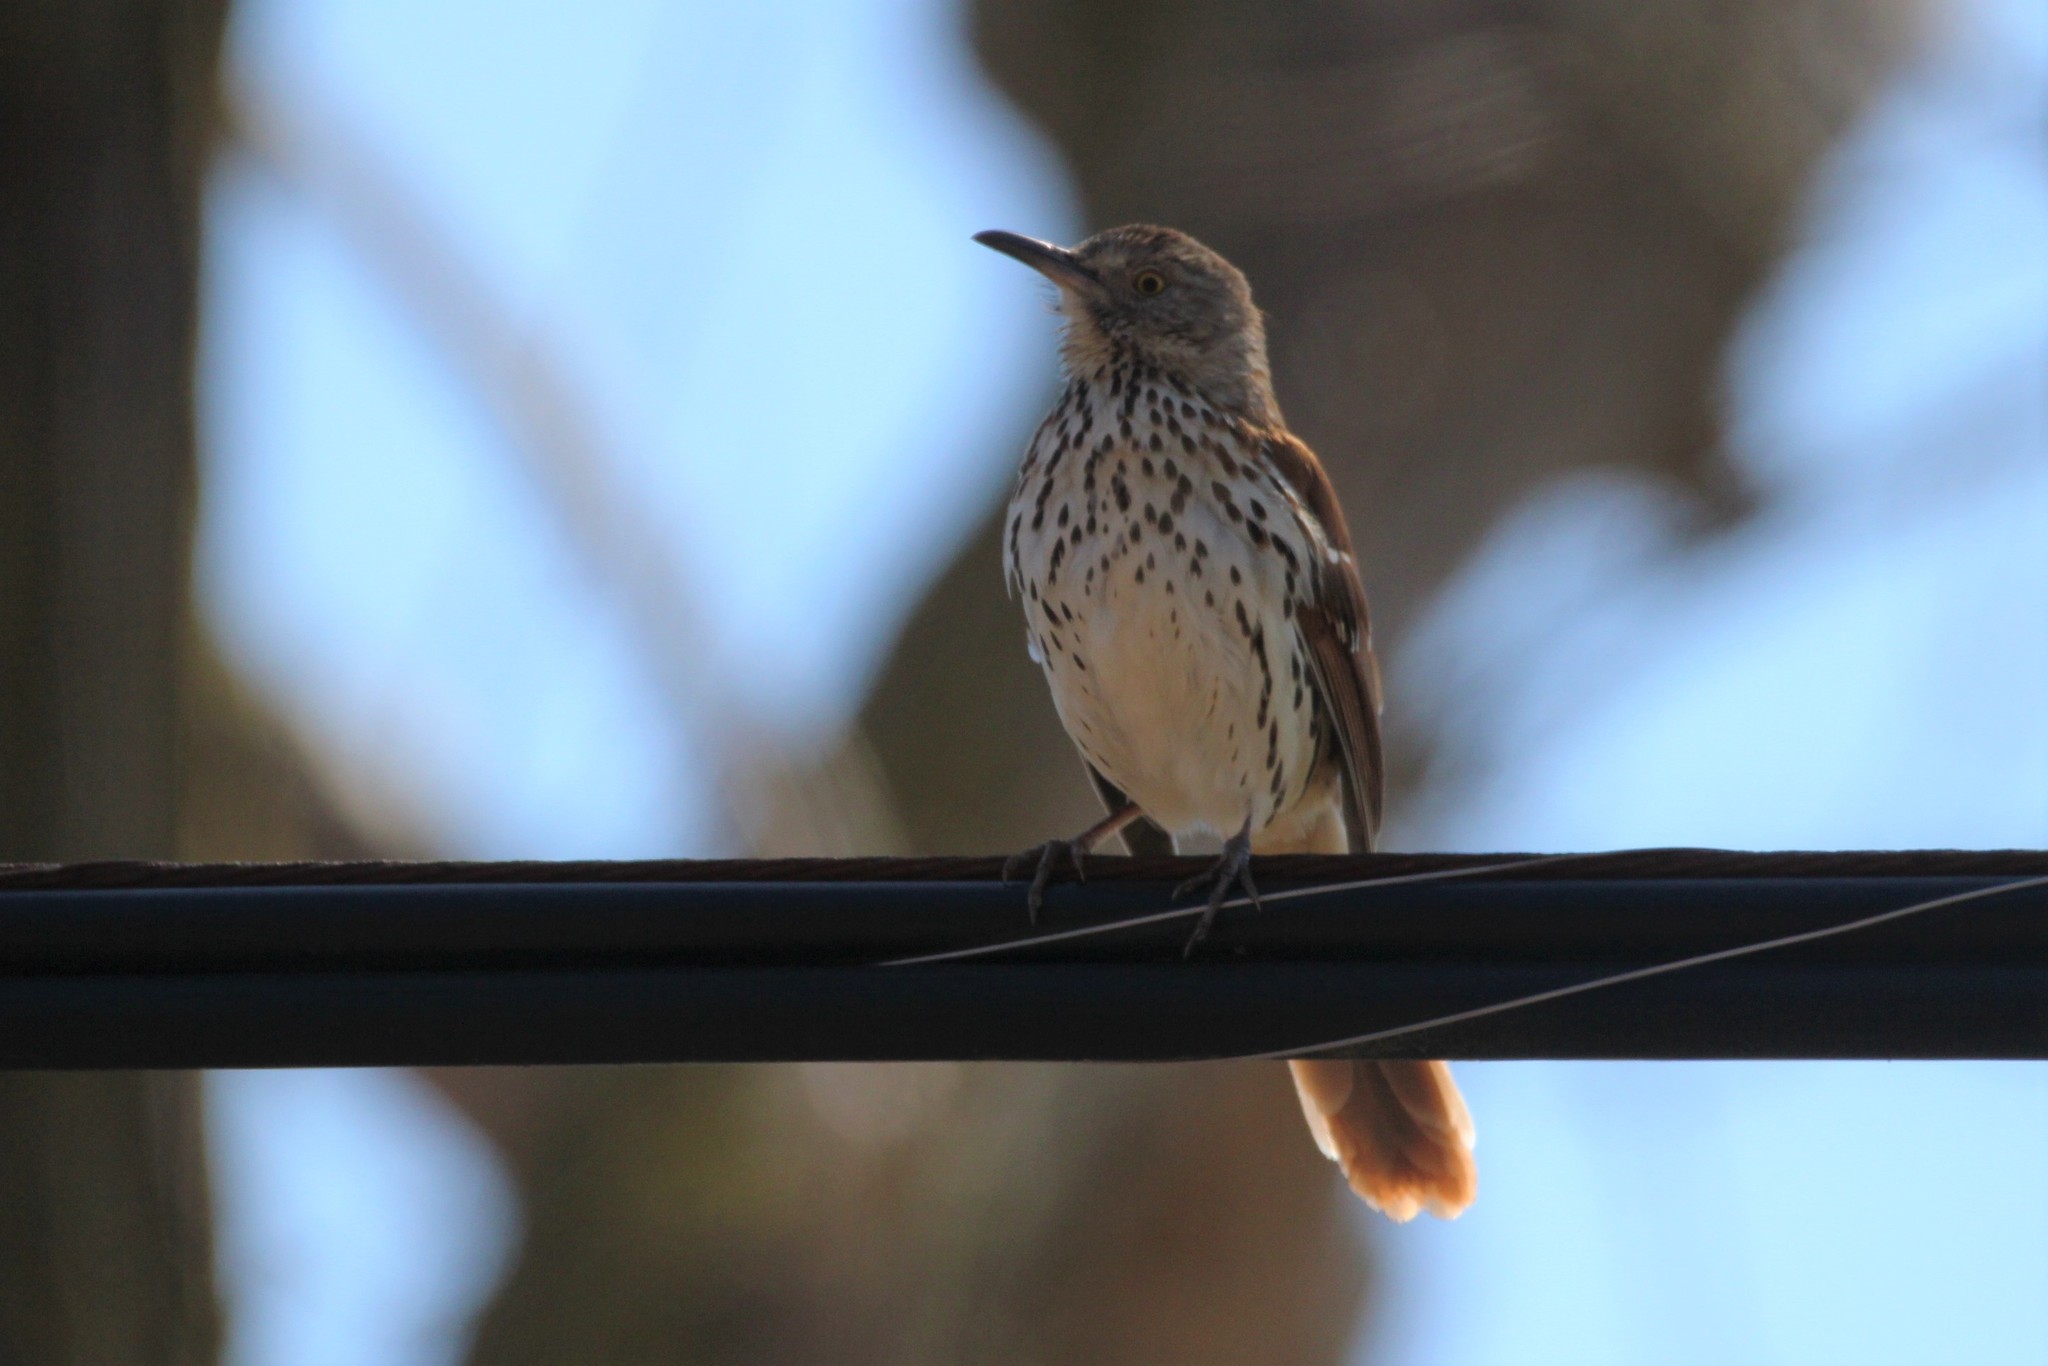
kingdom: Animalia
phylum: Chordata
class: Aves
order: Passeriformes
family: Mimidae
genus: Toxostoma
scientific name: Toxostoma rufum
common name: Brown thrasher
